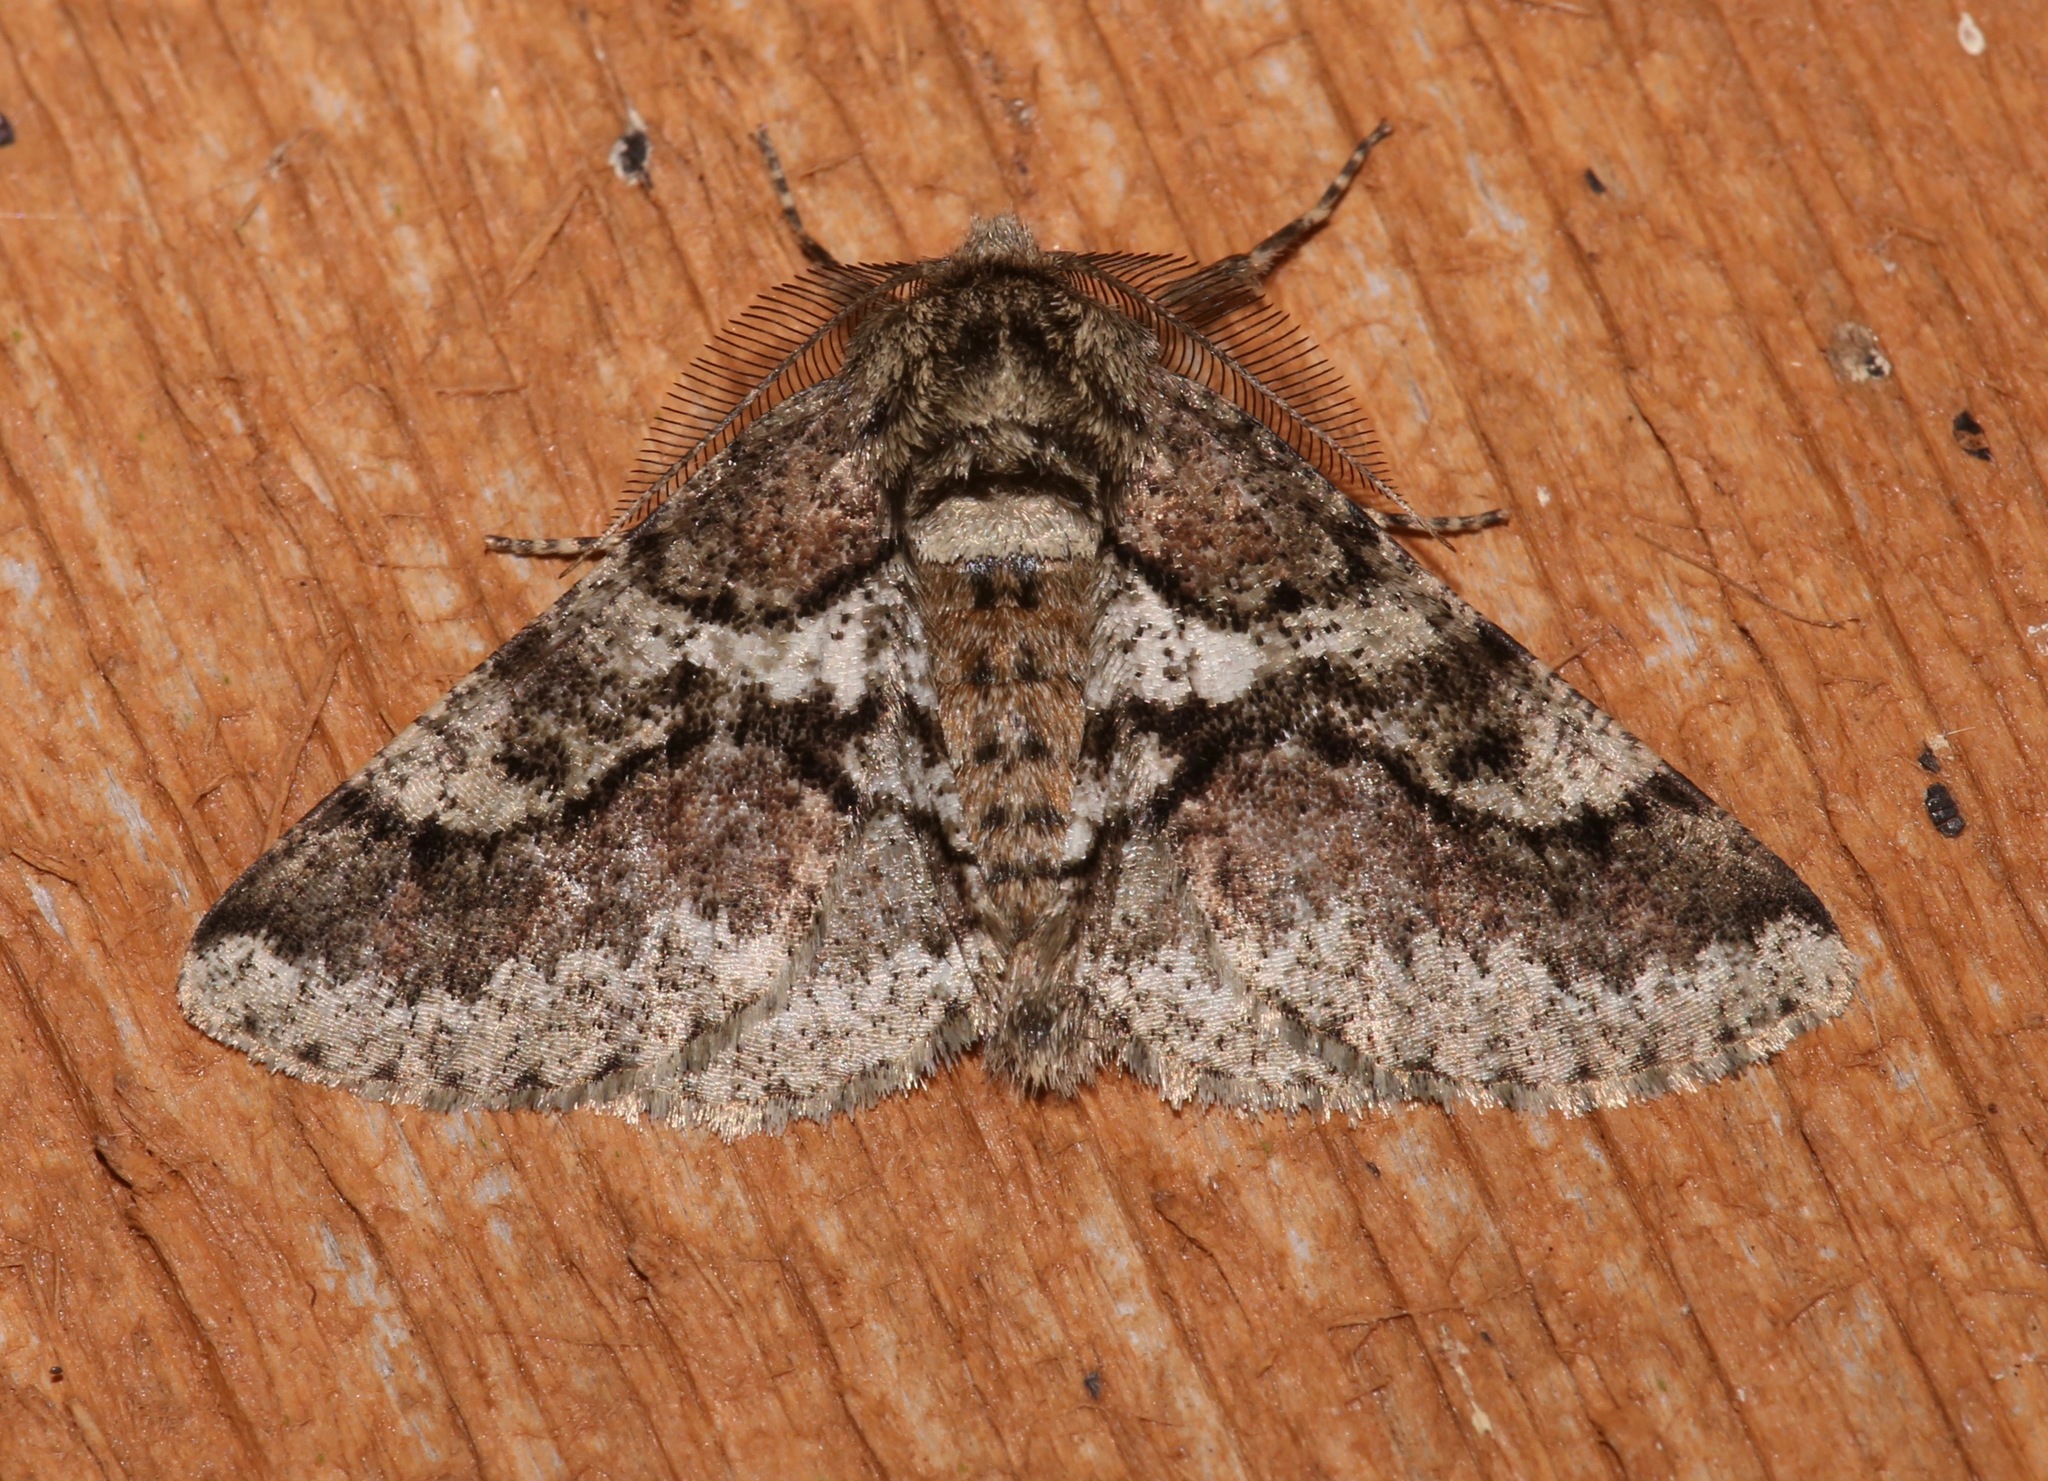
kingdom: Animalia
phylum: Arthropoda
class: Insecta
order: Lepidoptera
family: Geometridae
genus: Lycia
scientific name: Lycia ypsilon
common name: Wooly gray
